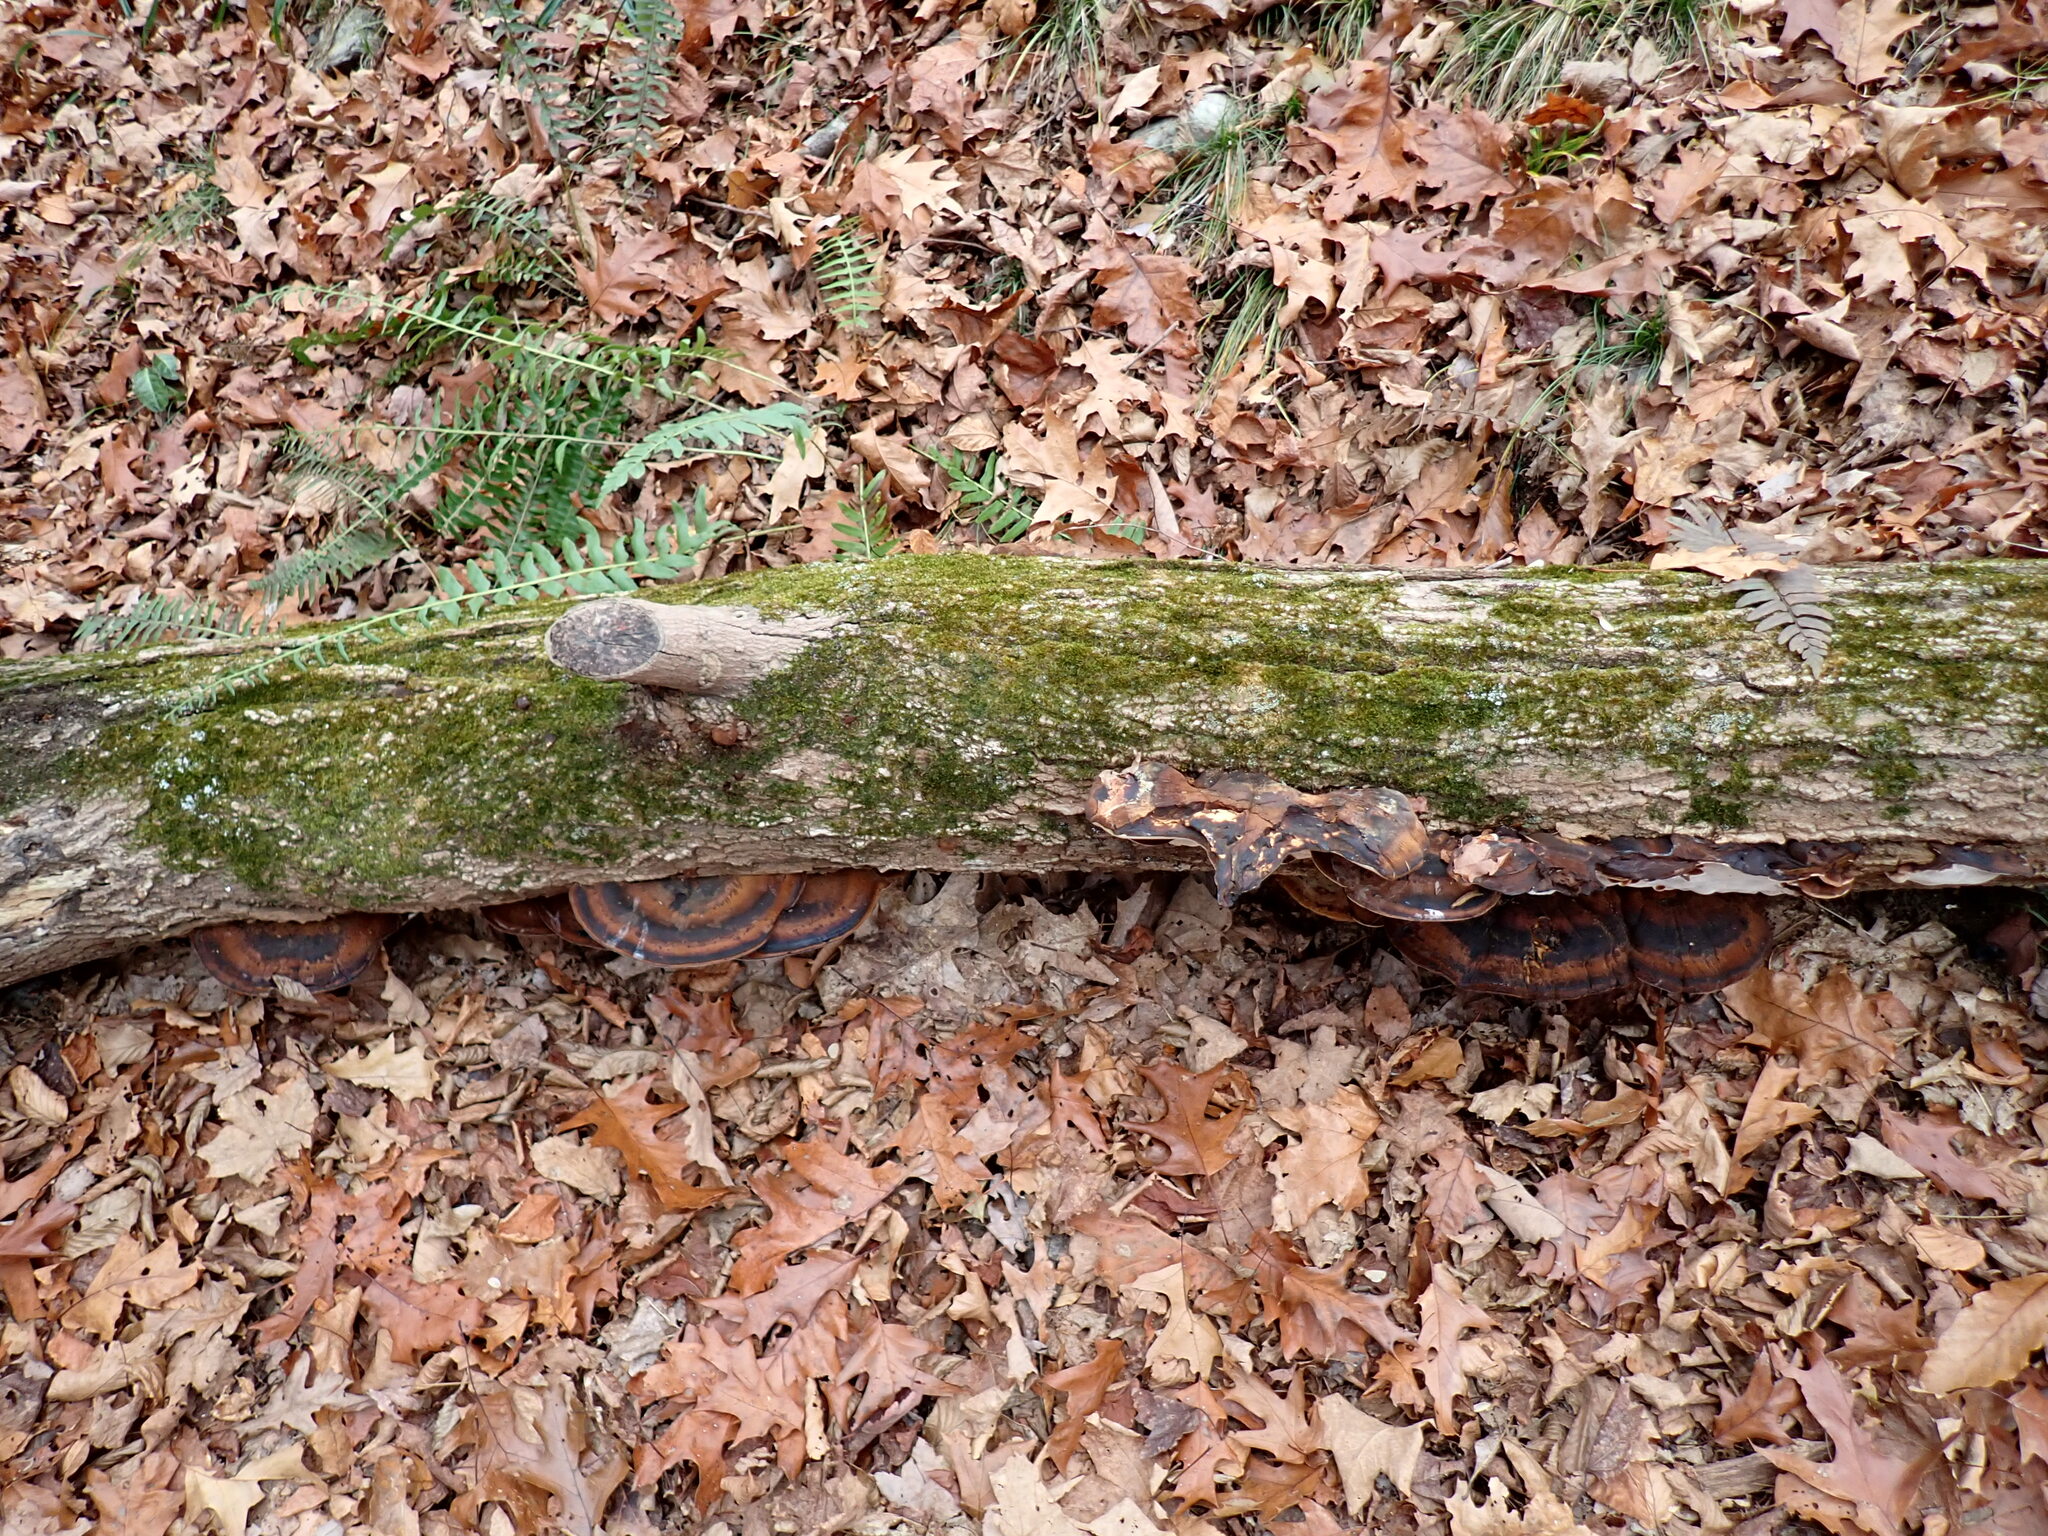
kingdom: Fungi
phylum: Basidiomycota
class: Agaricomycetes
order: Polyporales
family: Ischnodermataceae
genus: Ischnoderma
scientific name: Ischnoderma resinosum
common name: Resinous polypore
